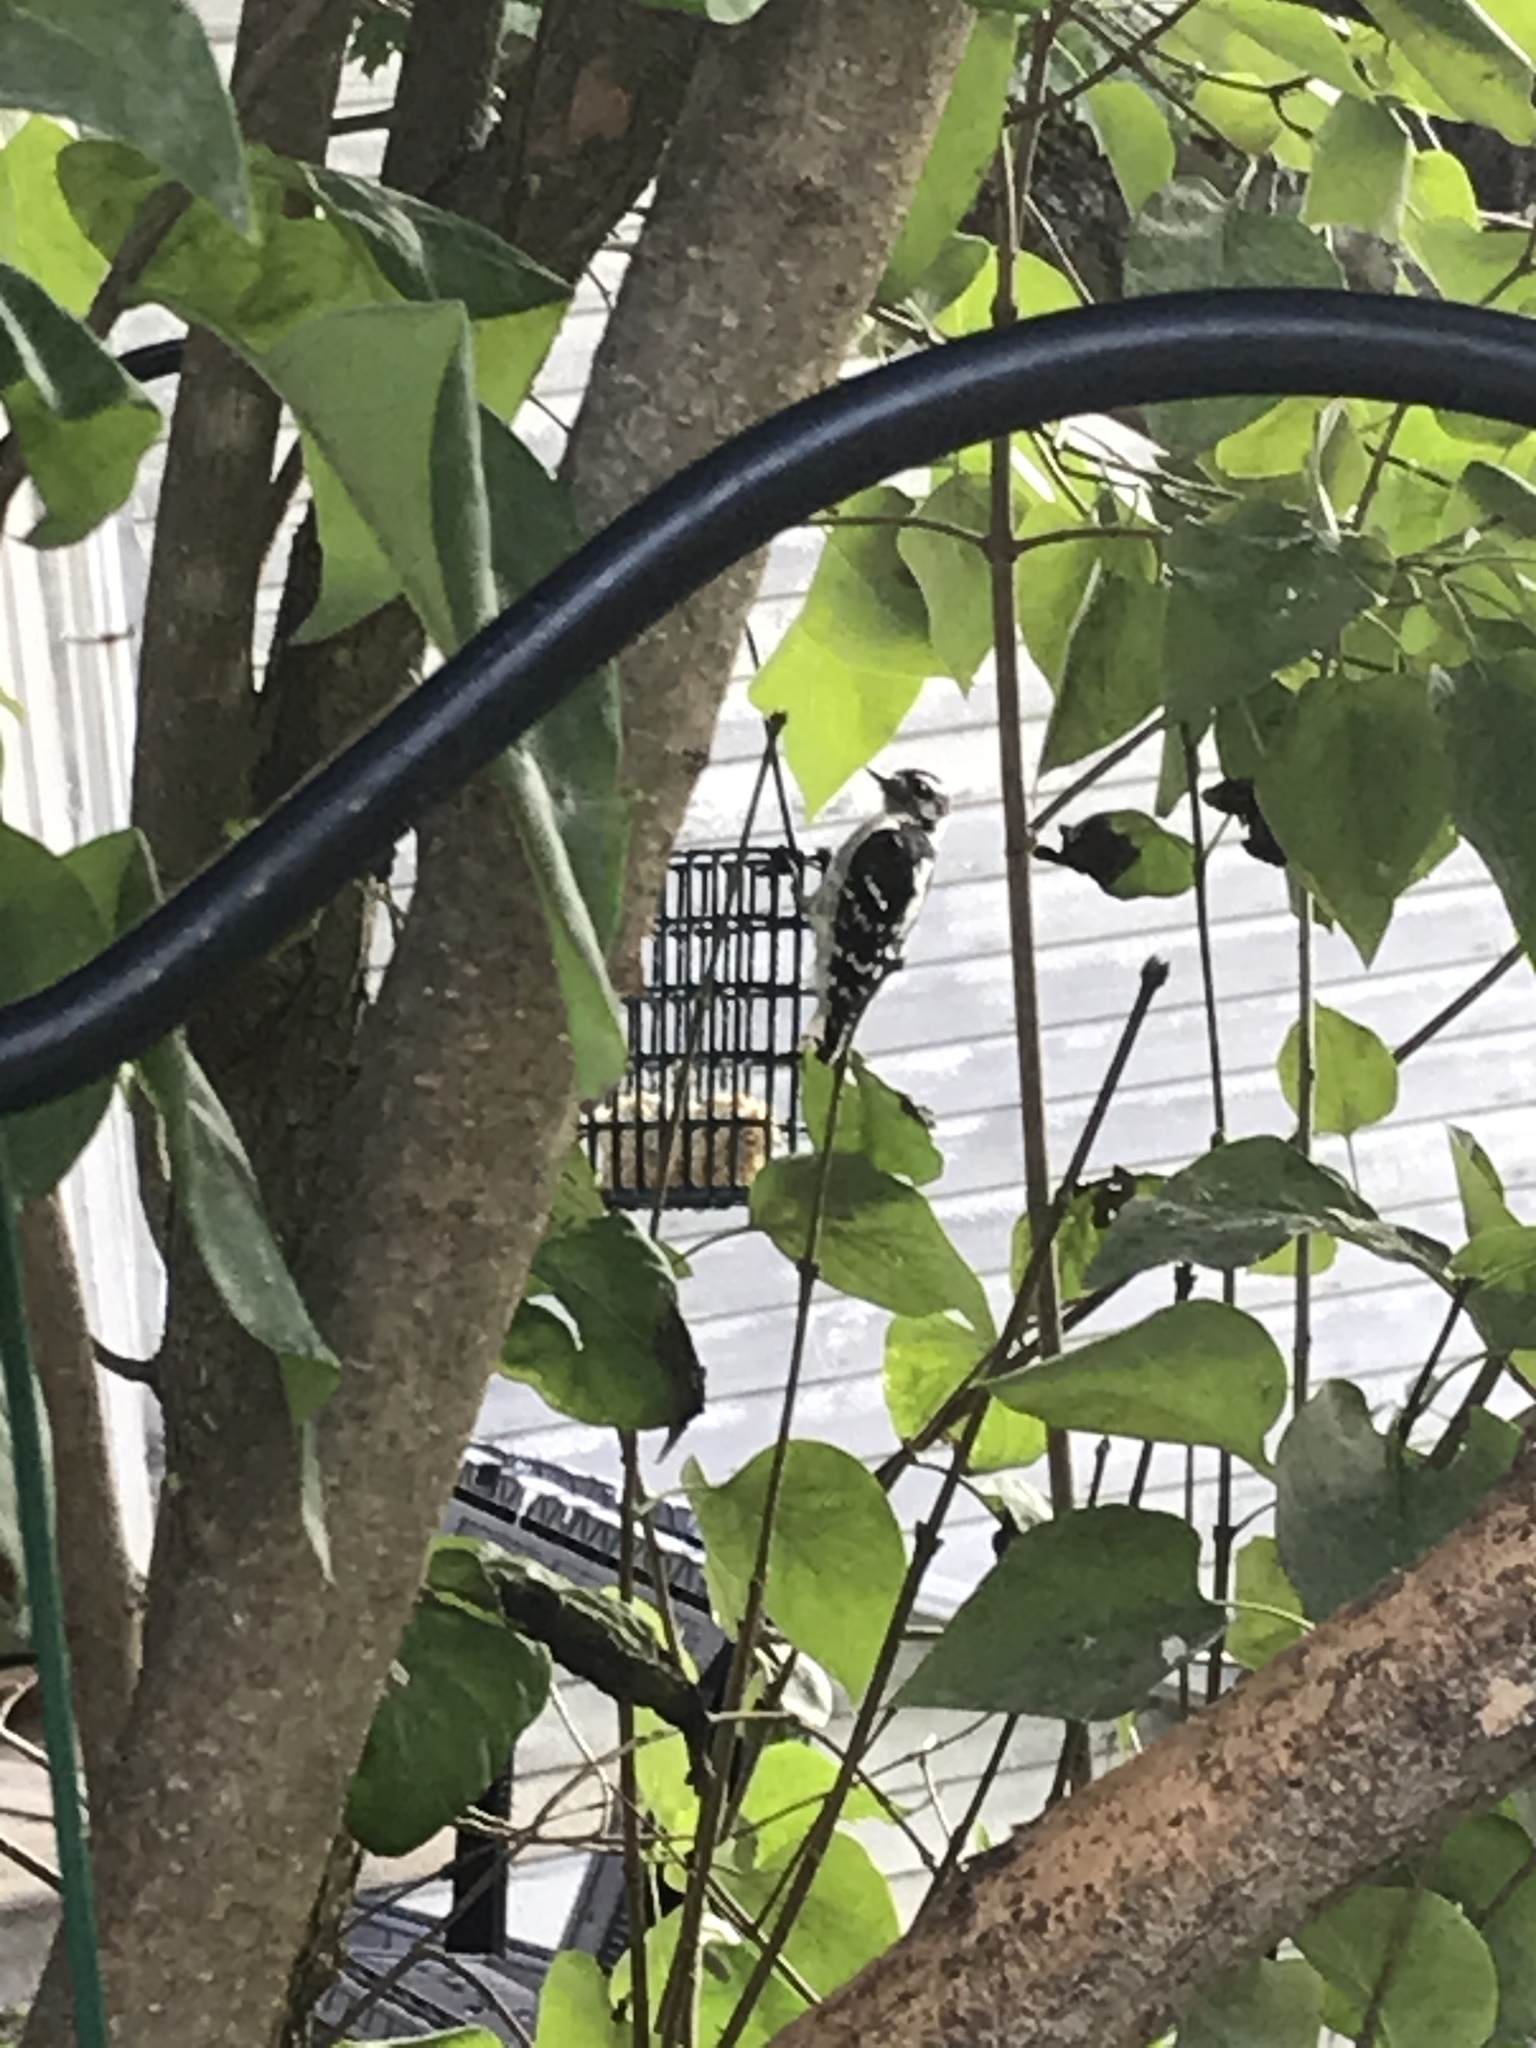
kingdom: Animalia
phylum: Chordata
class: Aves
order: Piciformes
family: Picidae
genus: Dryobates
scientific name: Dryobates pubescens
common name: Downy woodpecker
